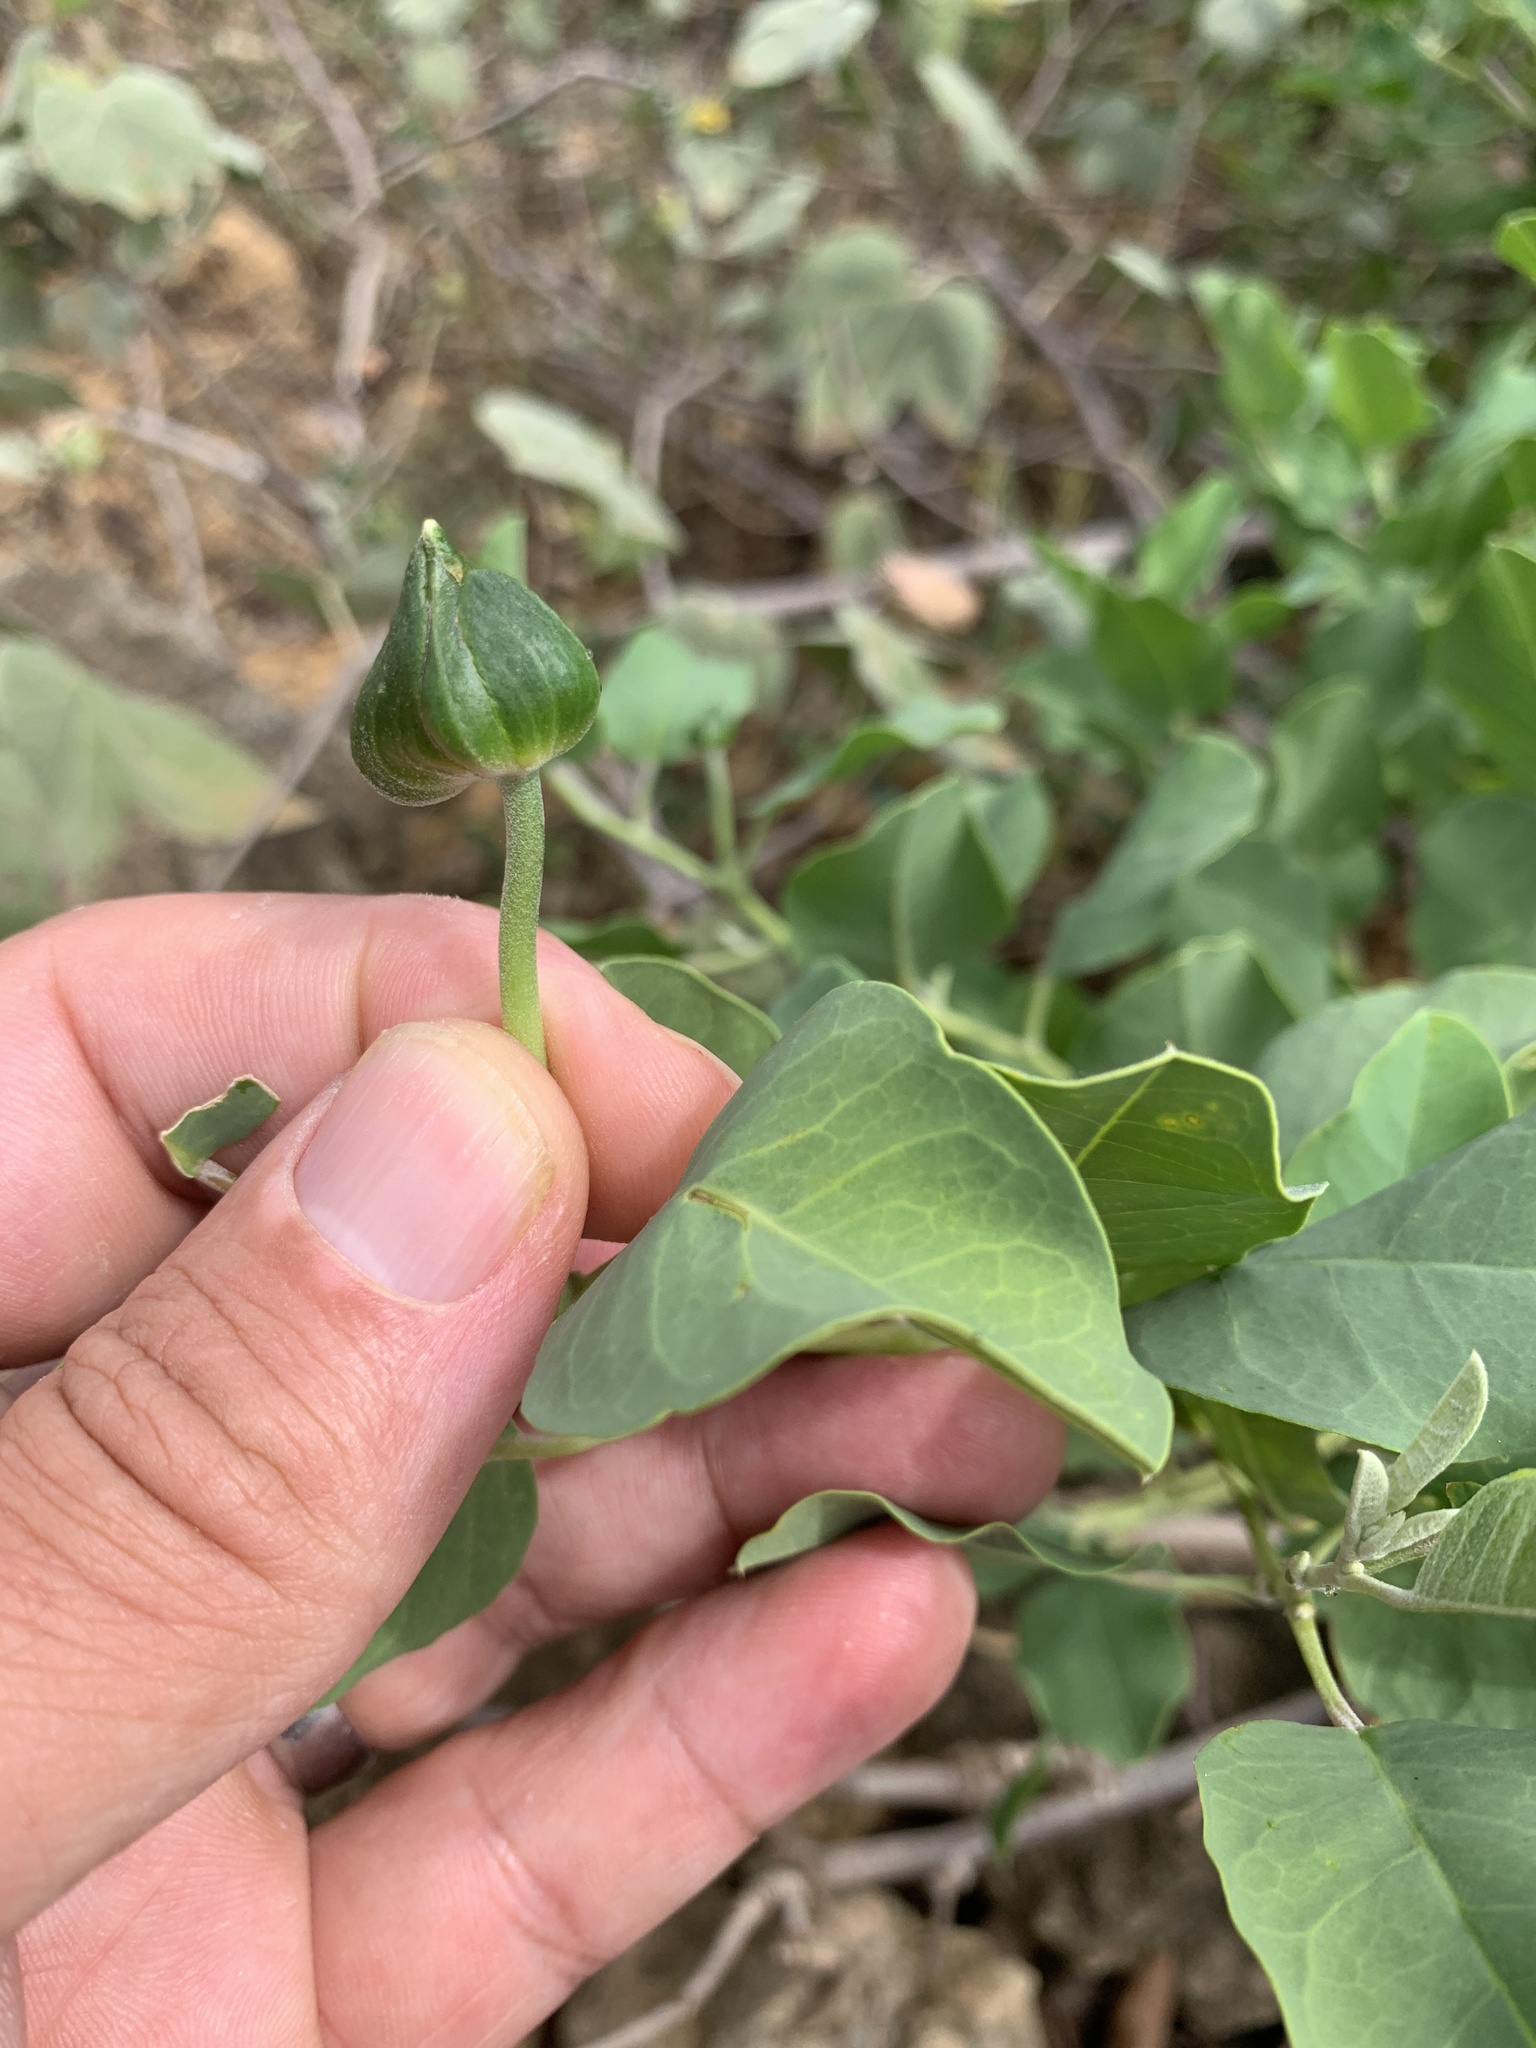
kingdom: Plantae
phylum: Tracheophyta
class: Magnoliopsida
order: Brassicales
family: Capparaceae
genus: Capparis
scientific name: Capparis spinosa
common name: Caper
